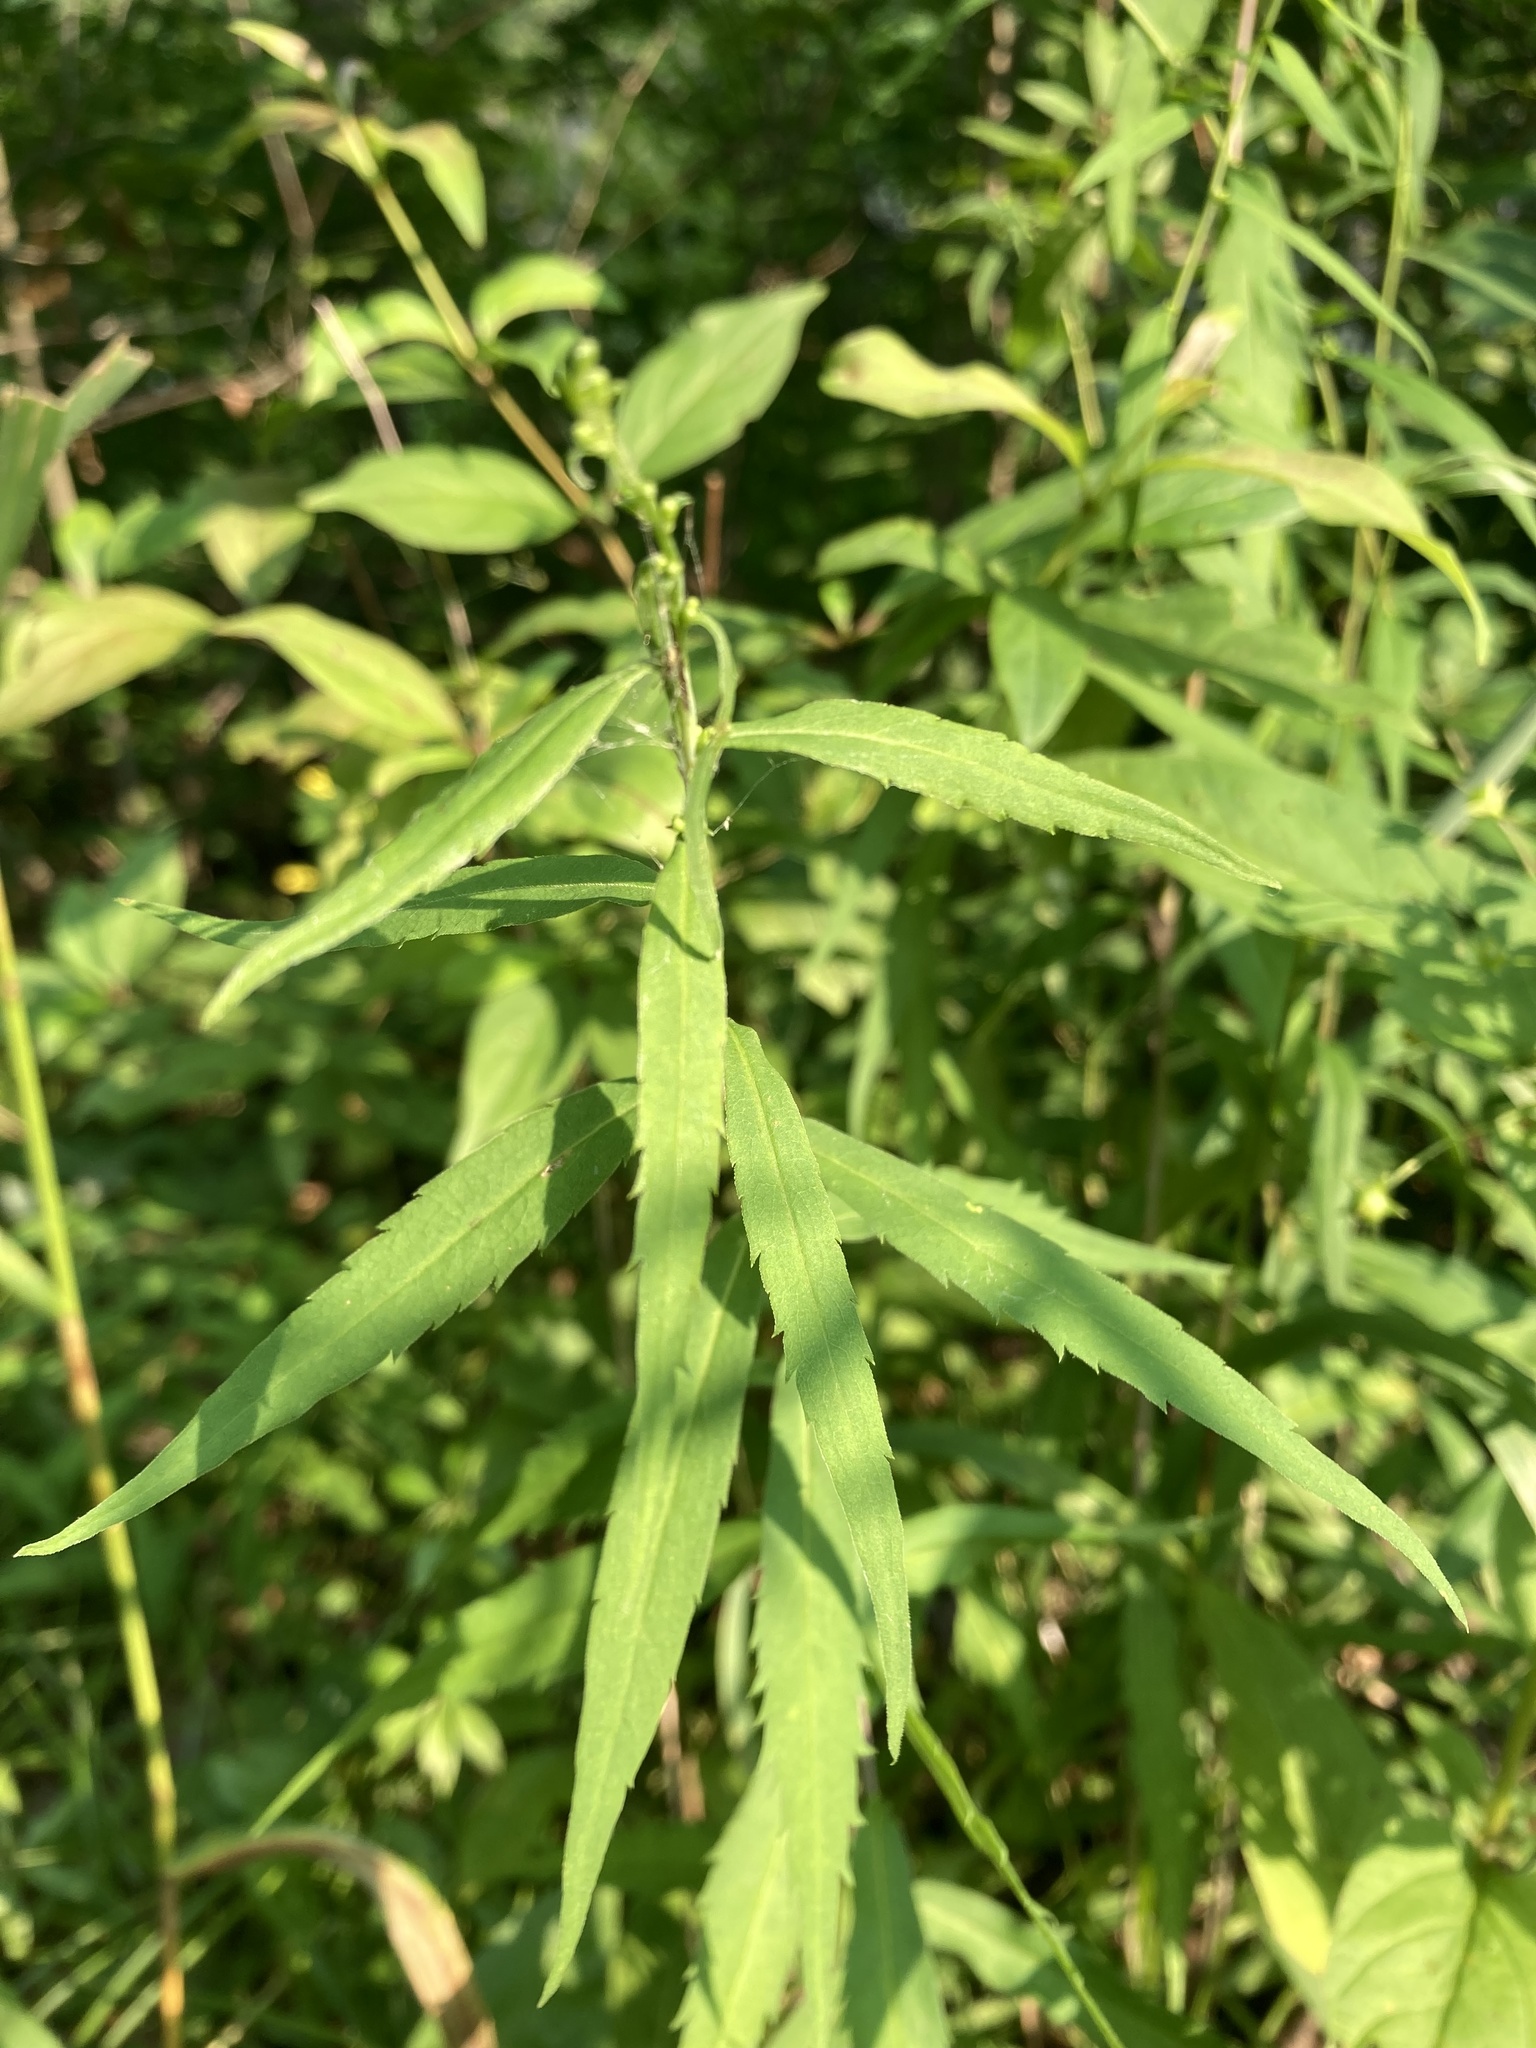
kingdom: Plantae
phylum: Tracheophyta
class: Magnoliopsida
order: Asterales
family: Asteraceae
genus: Solidago
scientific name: Solidago caesia
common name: Woodland goldenrod
